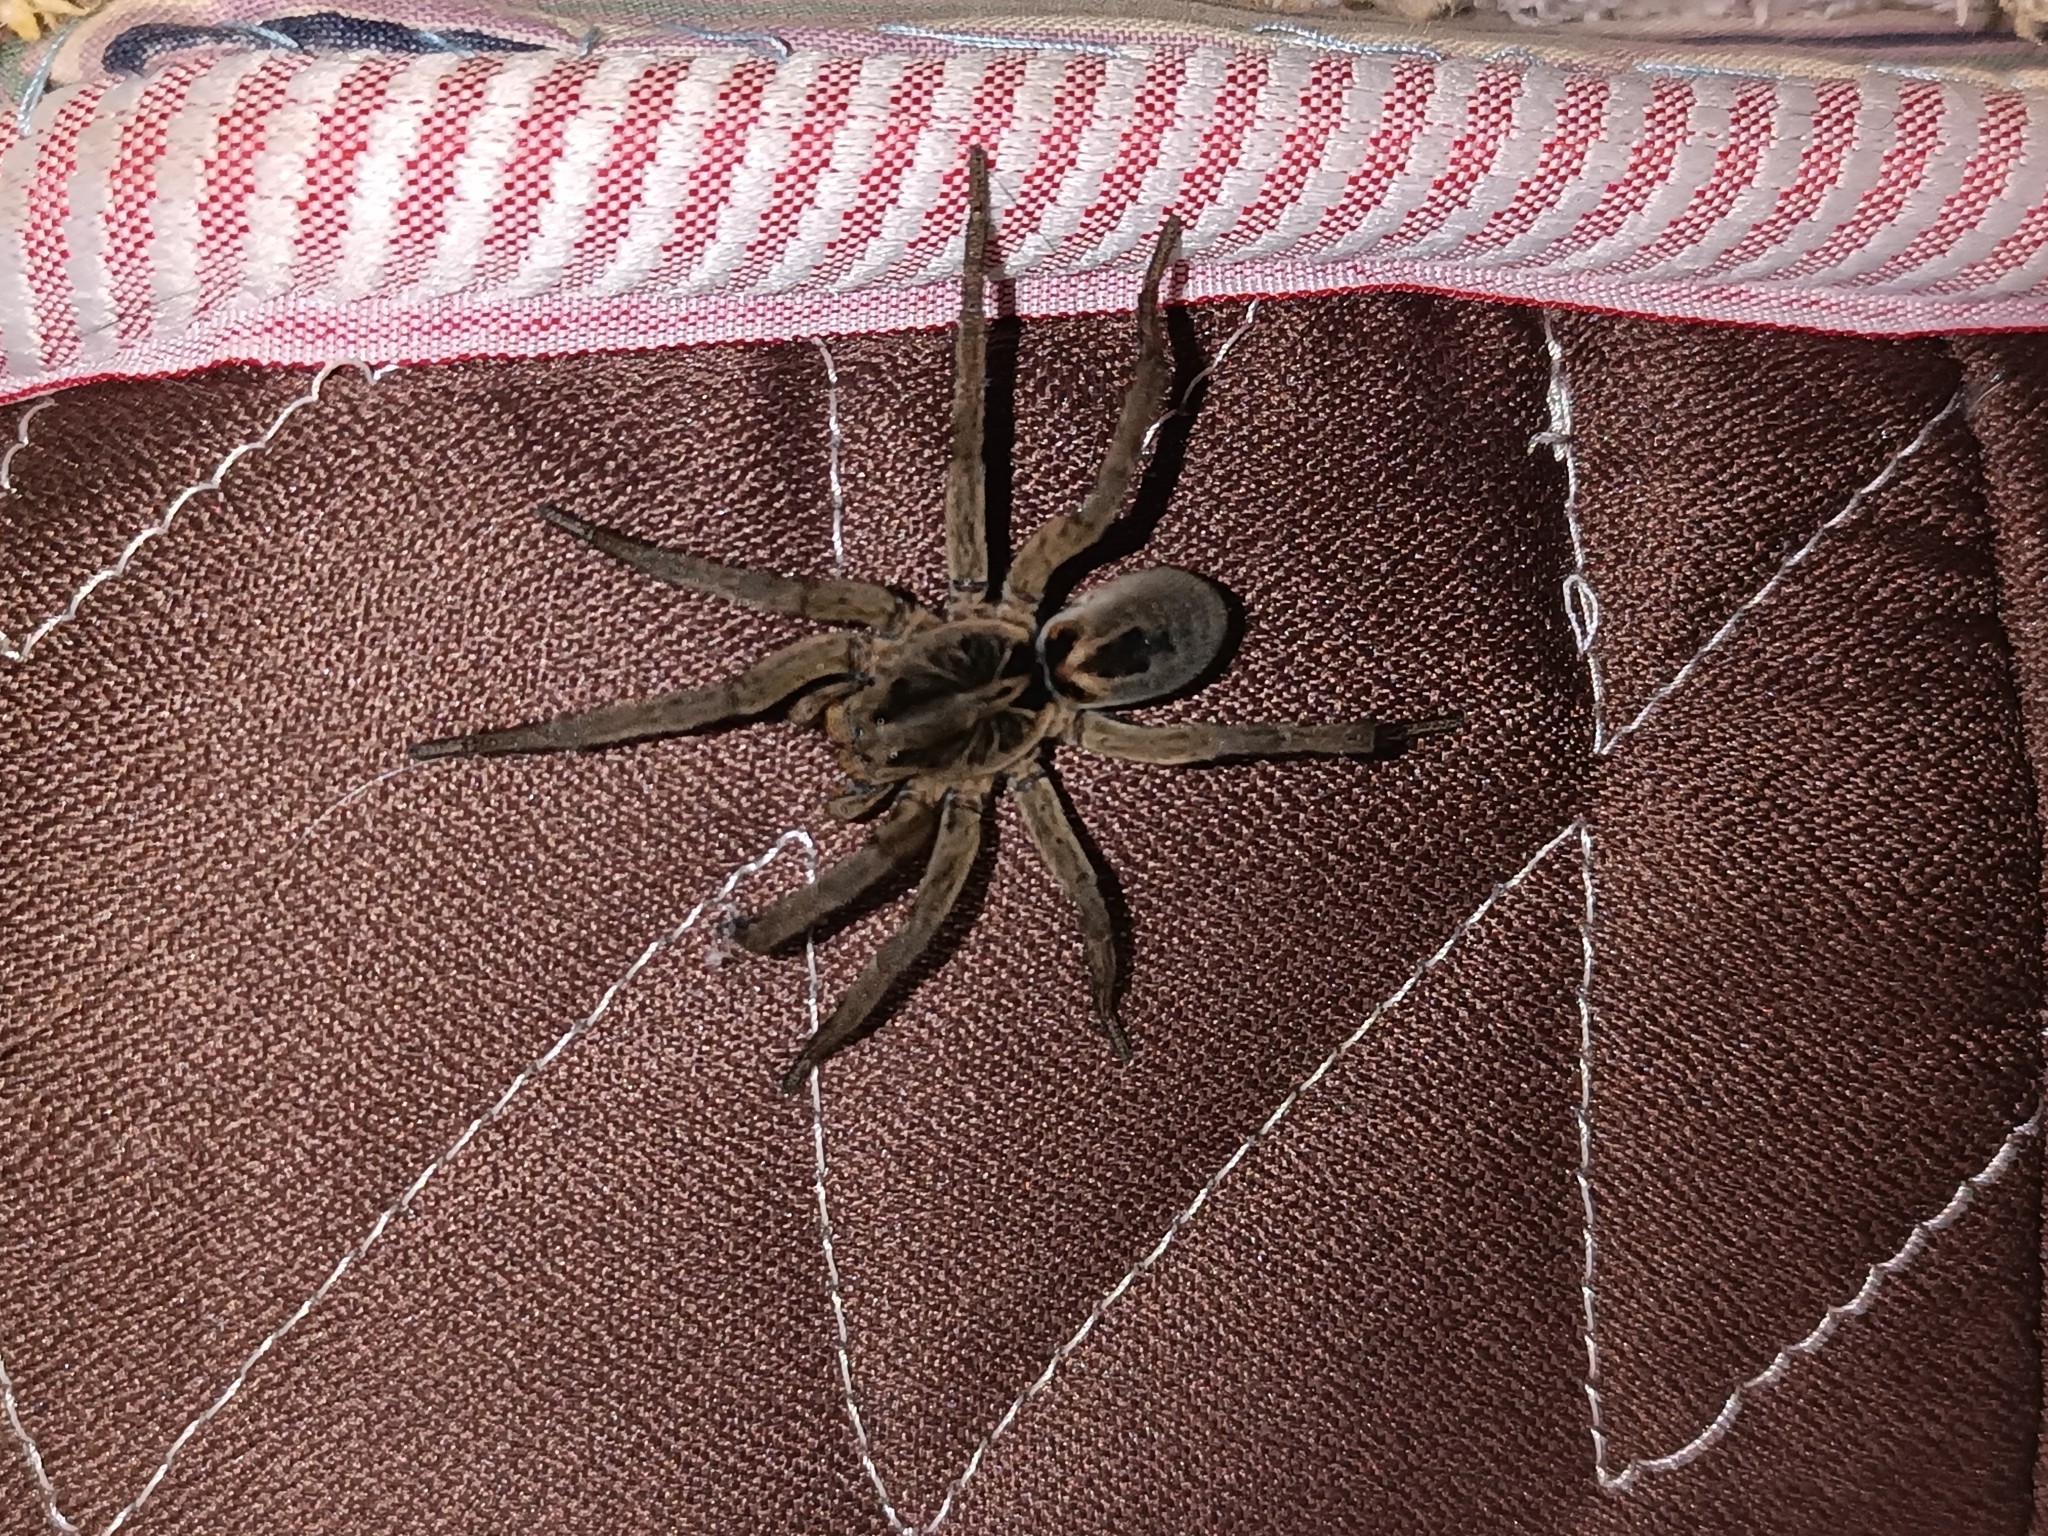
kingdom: Animalia
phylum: Arthropoda
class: Arachnida
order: Araneae
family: Lycosidae
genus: Lycosa
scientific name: Lycosa erythrognatha
